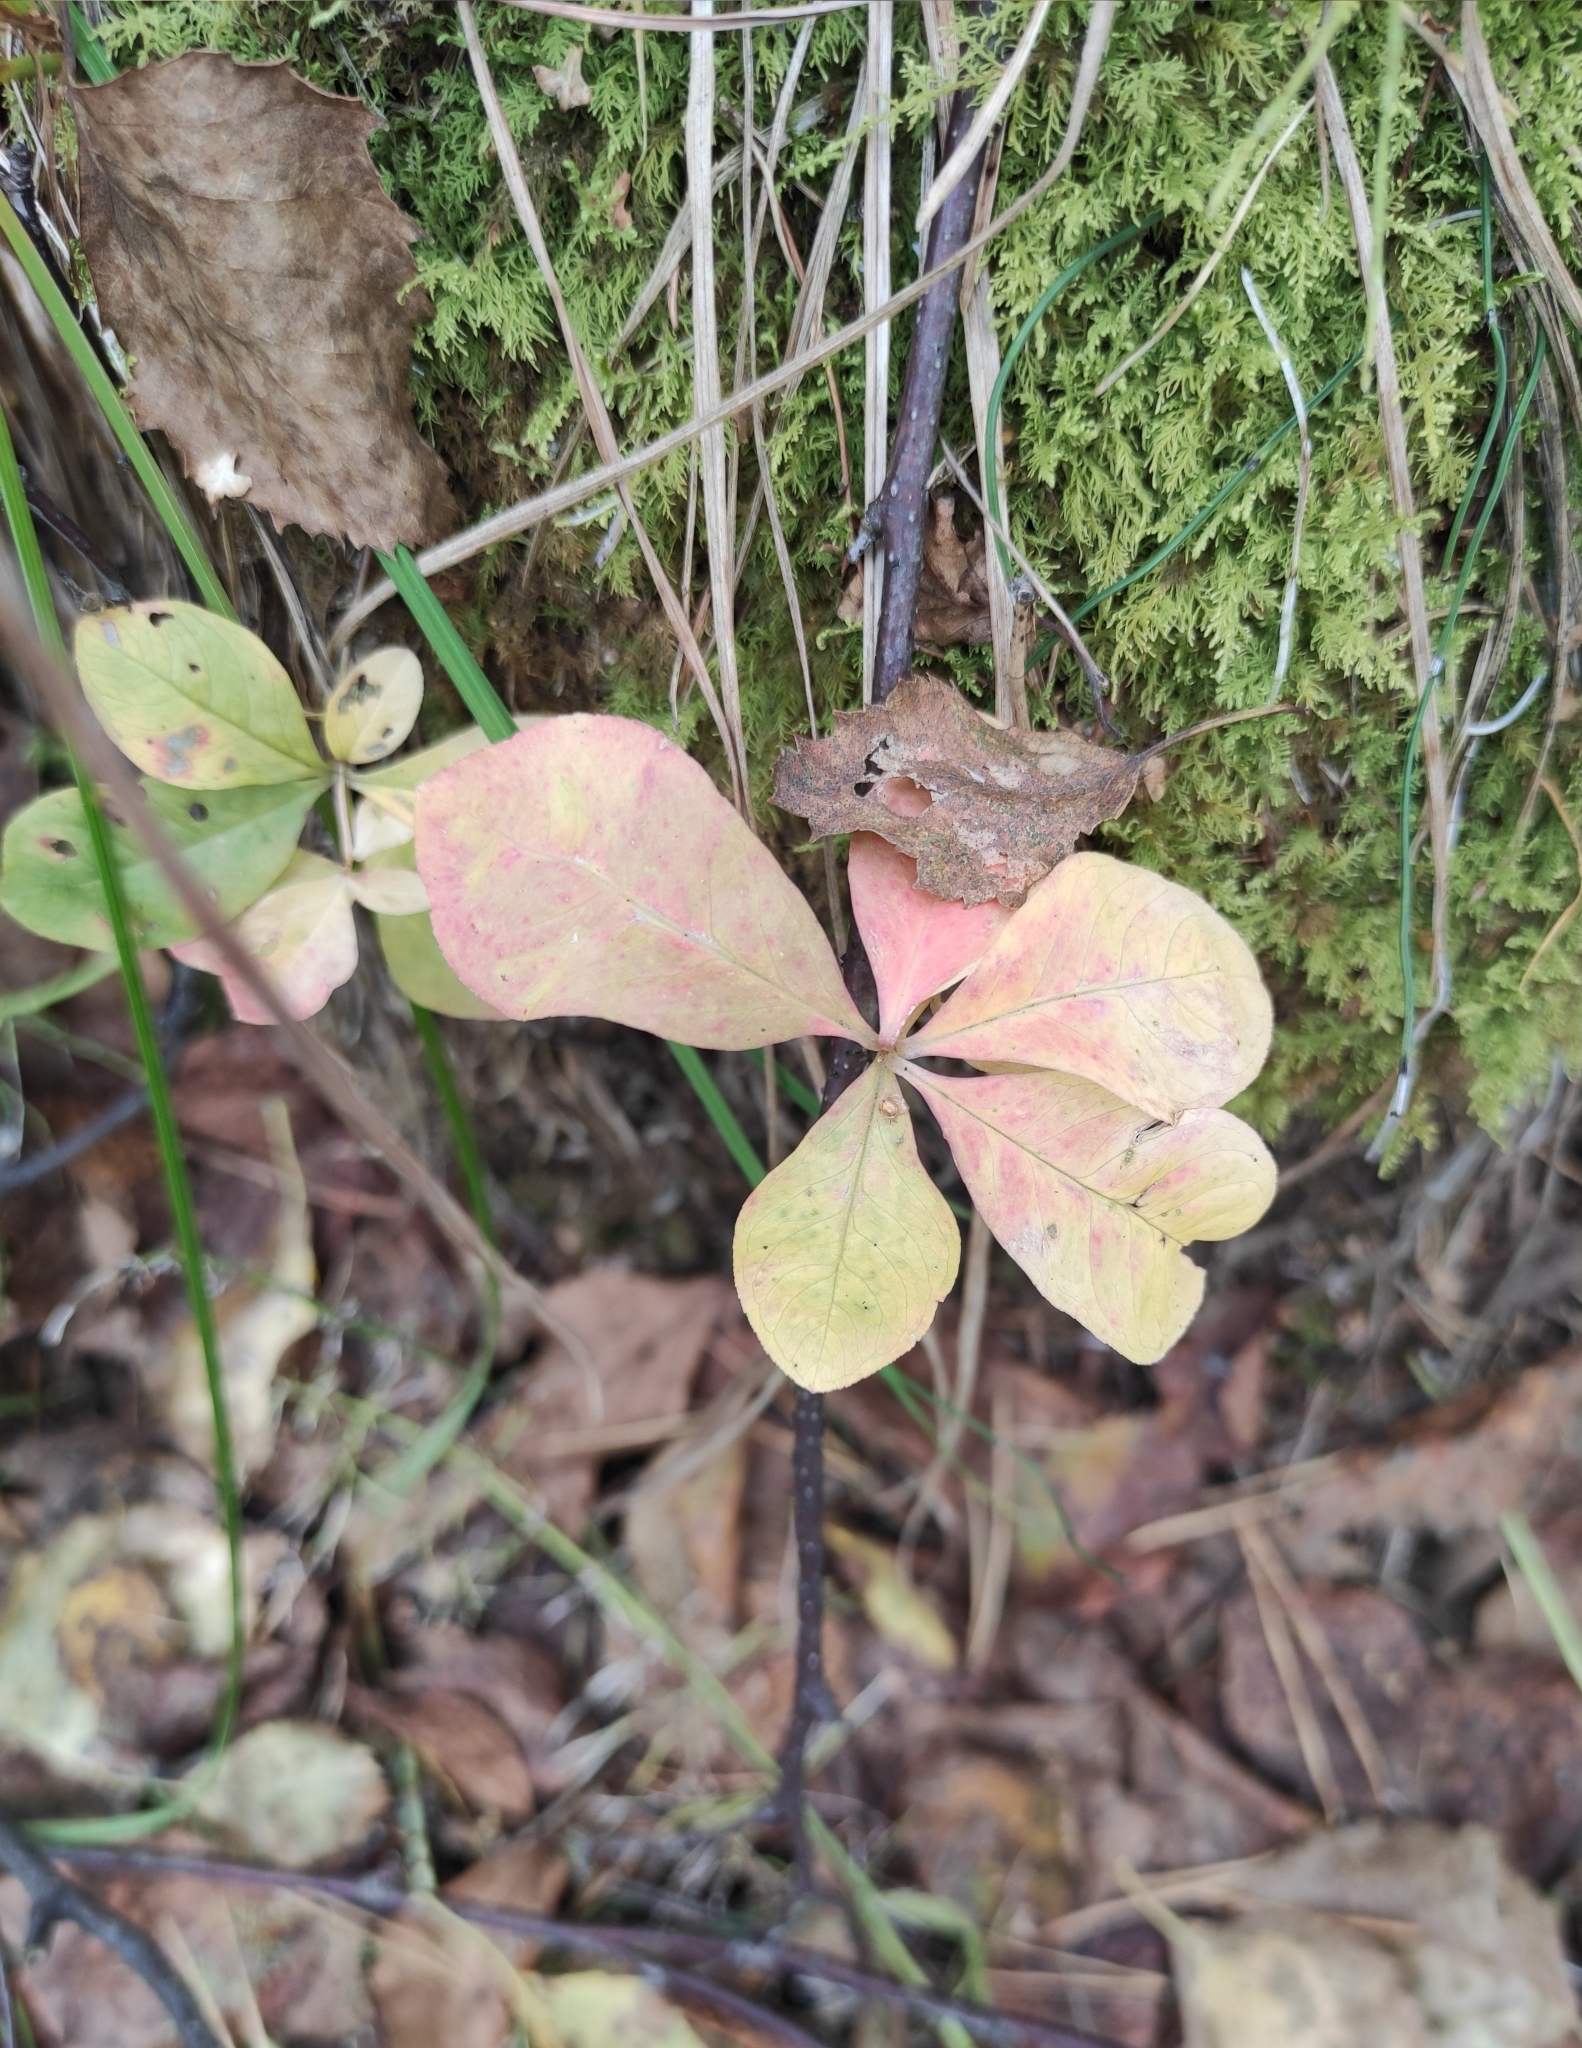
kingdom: Plantae
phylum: Tracheophyta
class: Magnoliopsida
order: Ericales
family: Primulaceae
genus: Lysimachia
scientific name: Lysimachia europaea
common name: Arctic starflower
